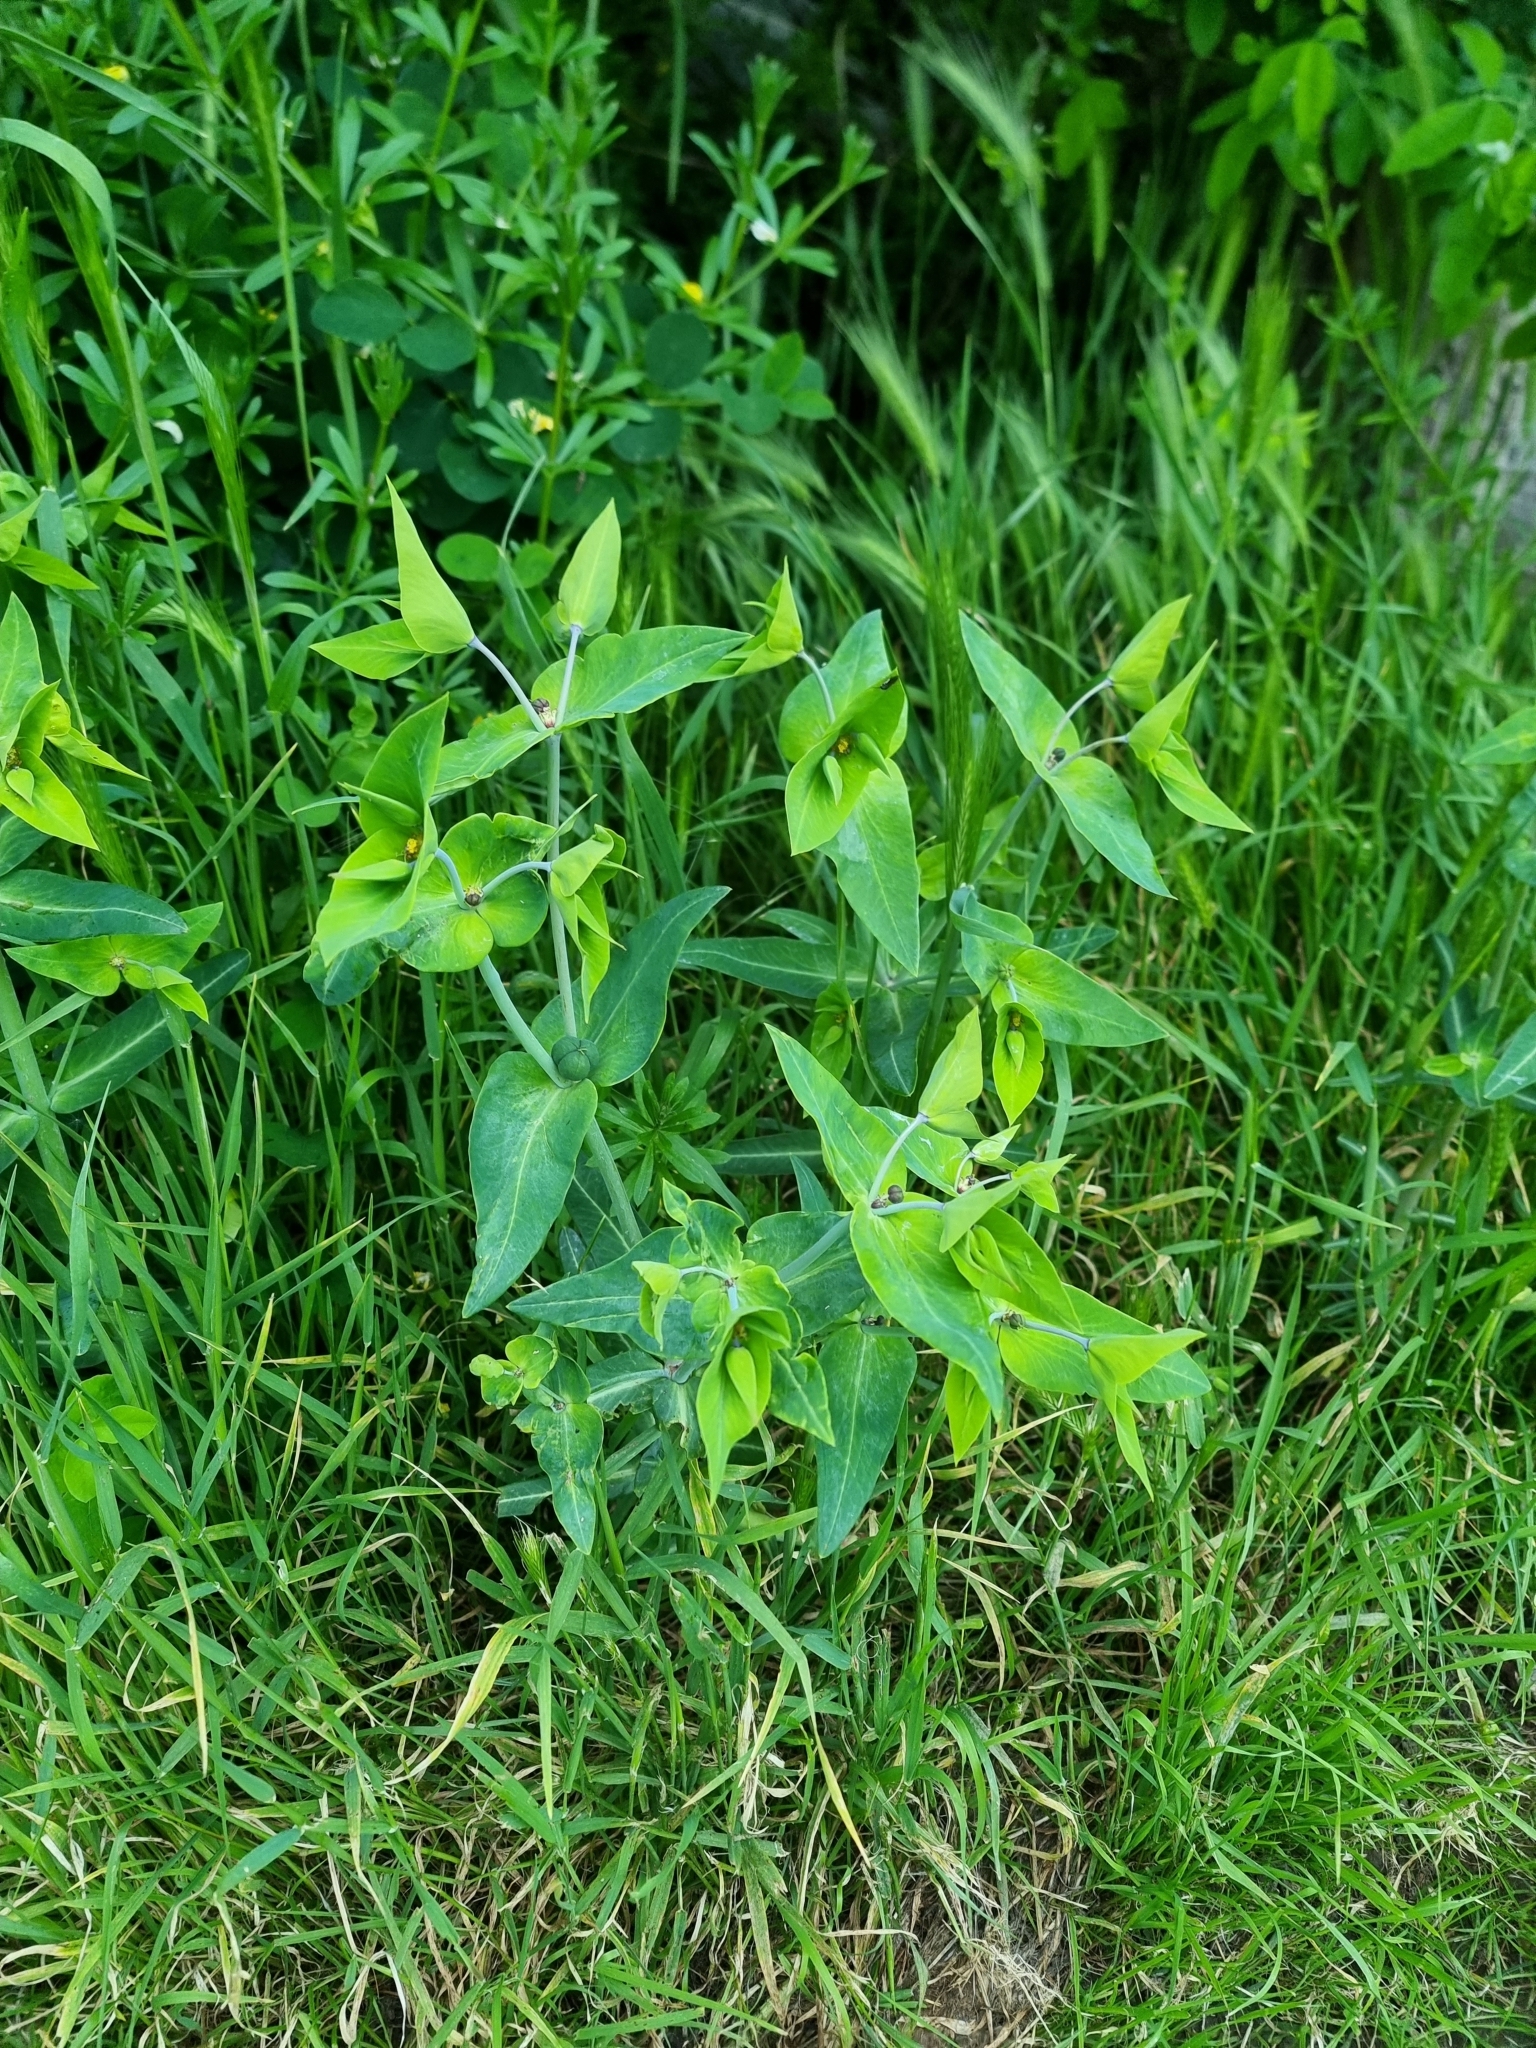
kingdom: Plantae
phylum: Tracheophyta
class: Magnoliopsida
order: Malpighiales
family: Euphorbiaceae
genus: Euphorbia
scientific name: Euphorbia lathyris
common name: Caper spurge
